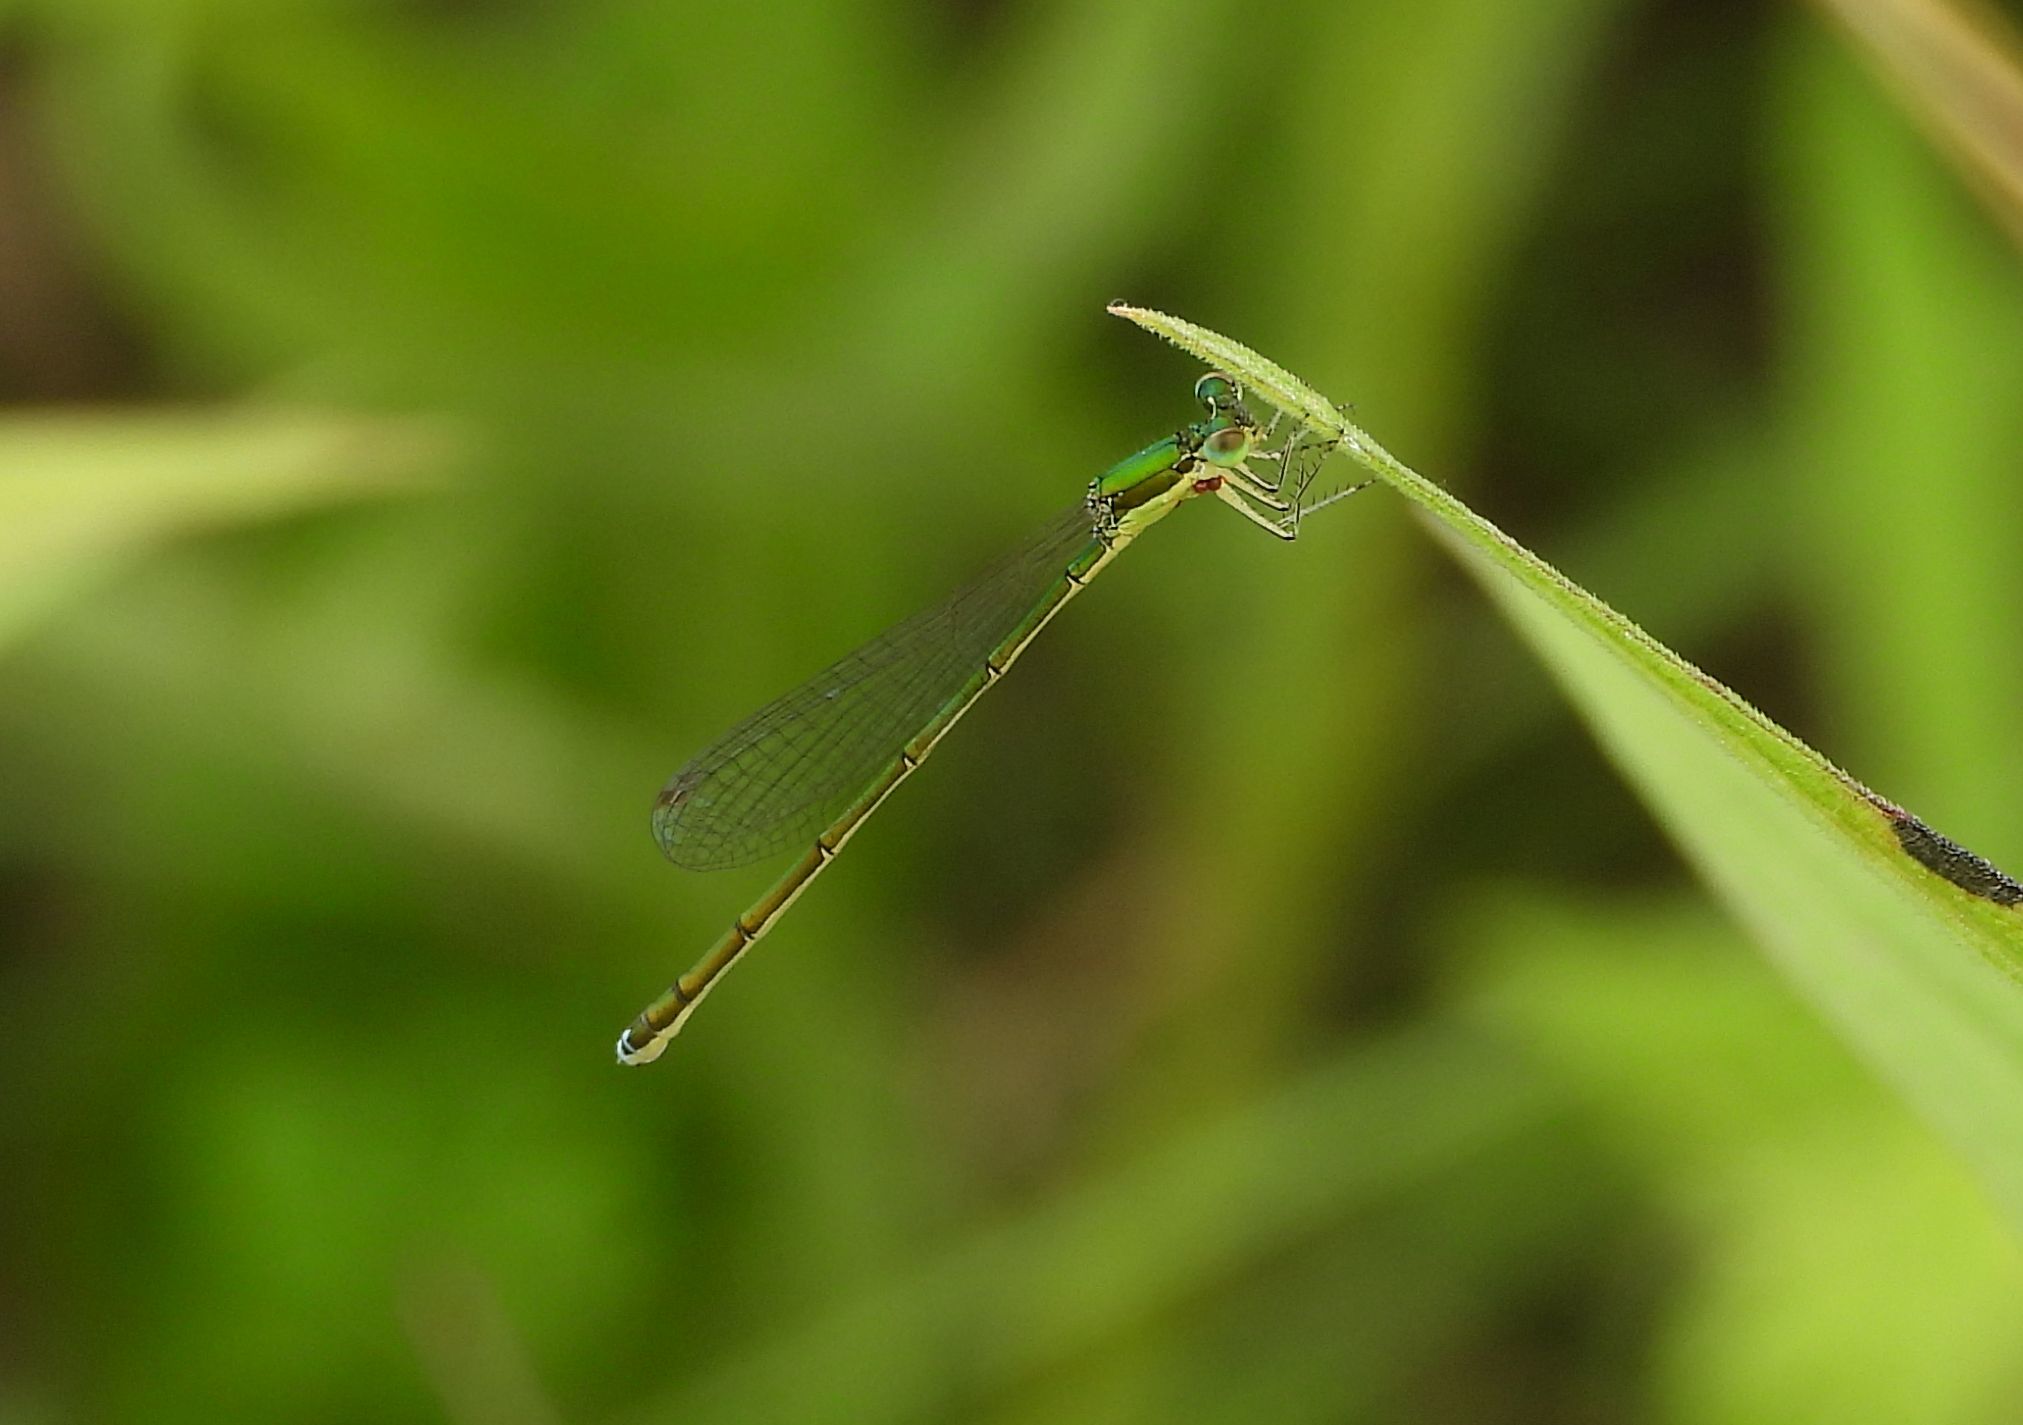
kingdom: Animalia
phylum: Arthropoda
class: Insecta
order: Odonata
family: Coenagrionidae
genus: Nehalennia
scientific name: Nehalennia irene
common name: Sedge sprite
